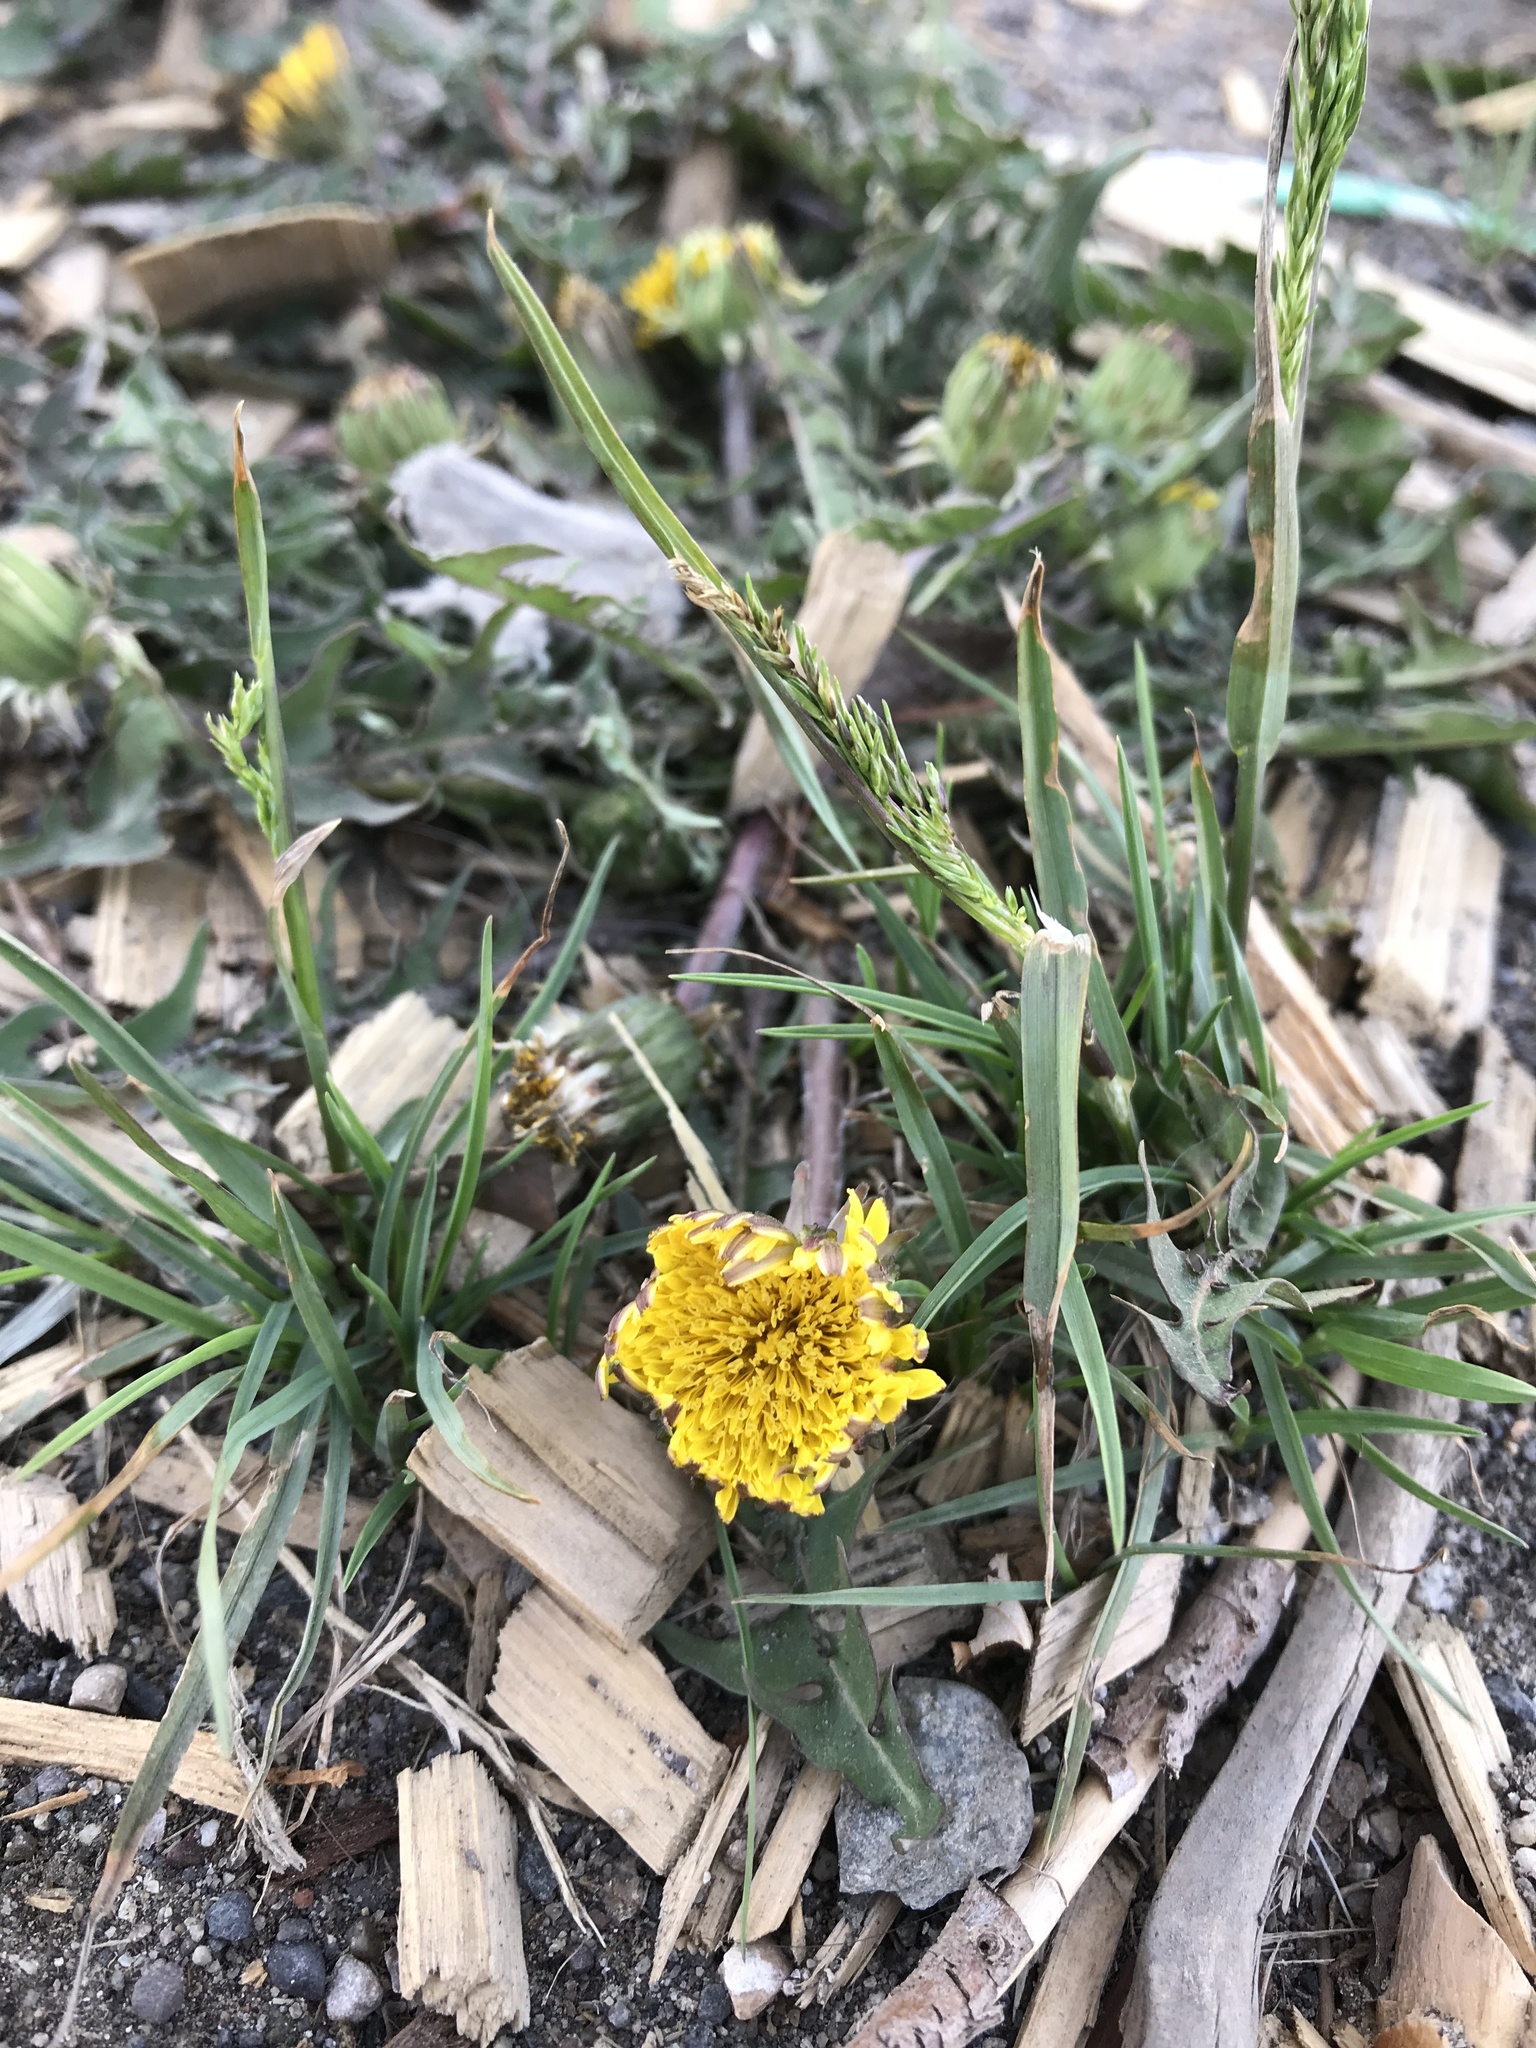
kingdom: Plantae
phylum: Tracheophyta
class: Magnoliopsida
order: Asterales
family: Asteraceae
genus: Taraxacum
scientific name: Taraxacum officinale
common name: Common dandelion
